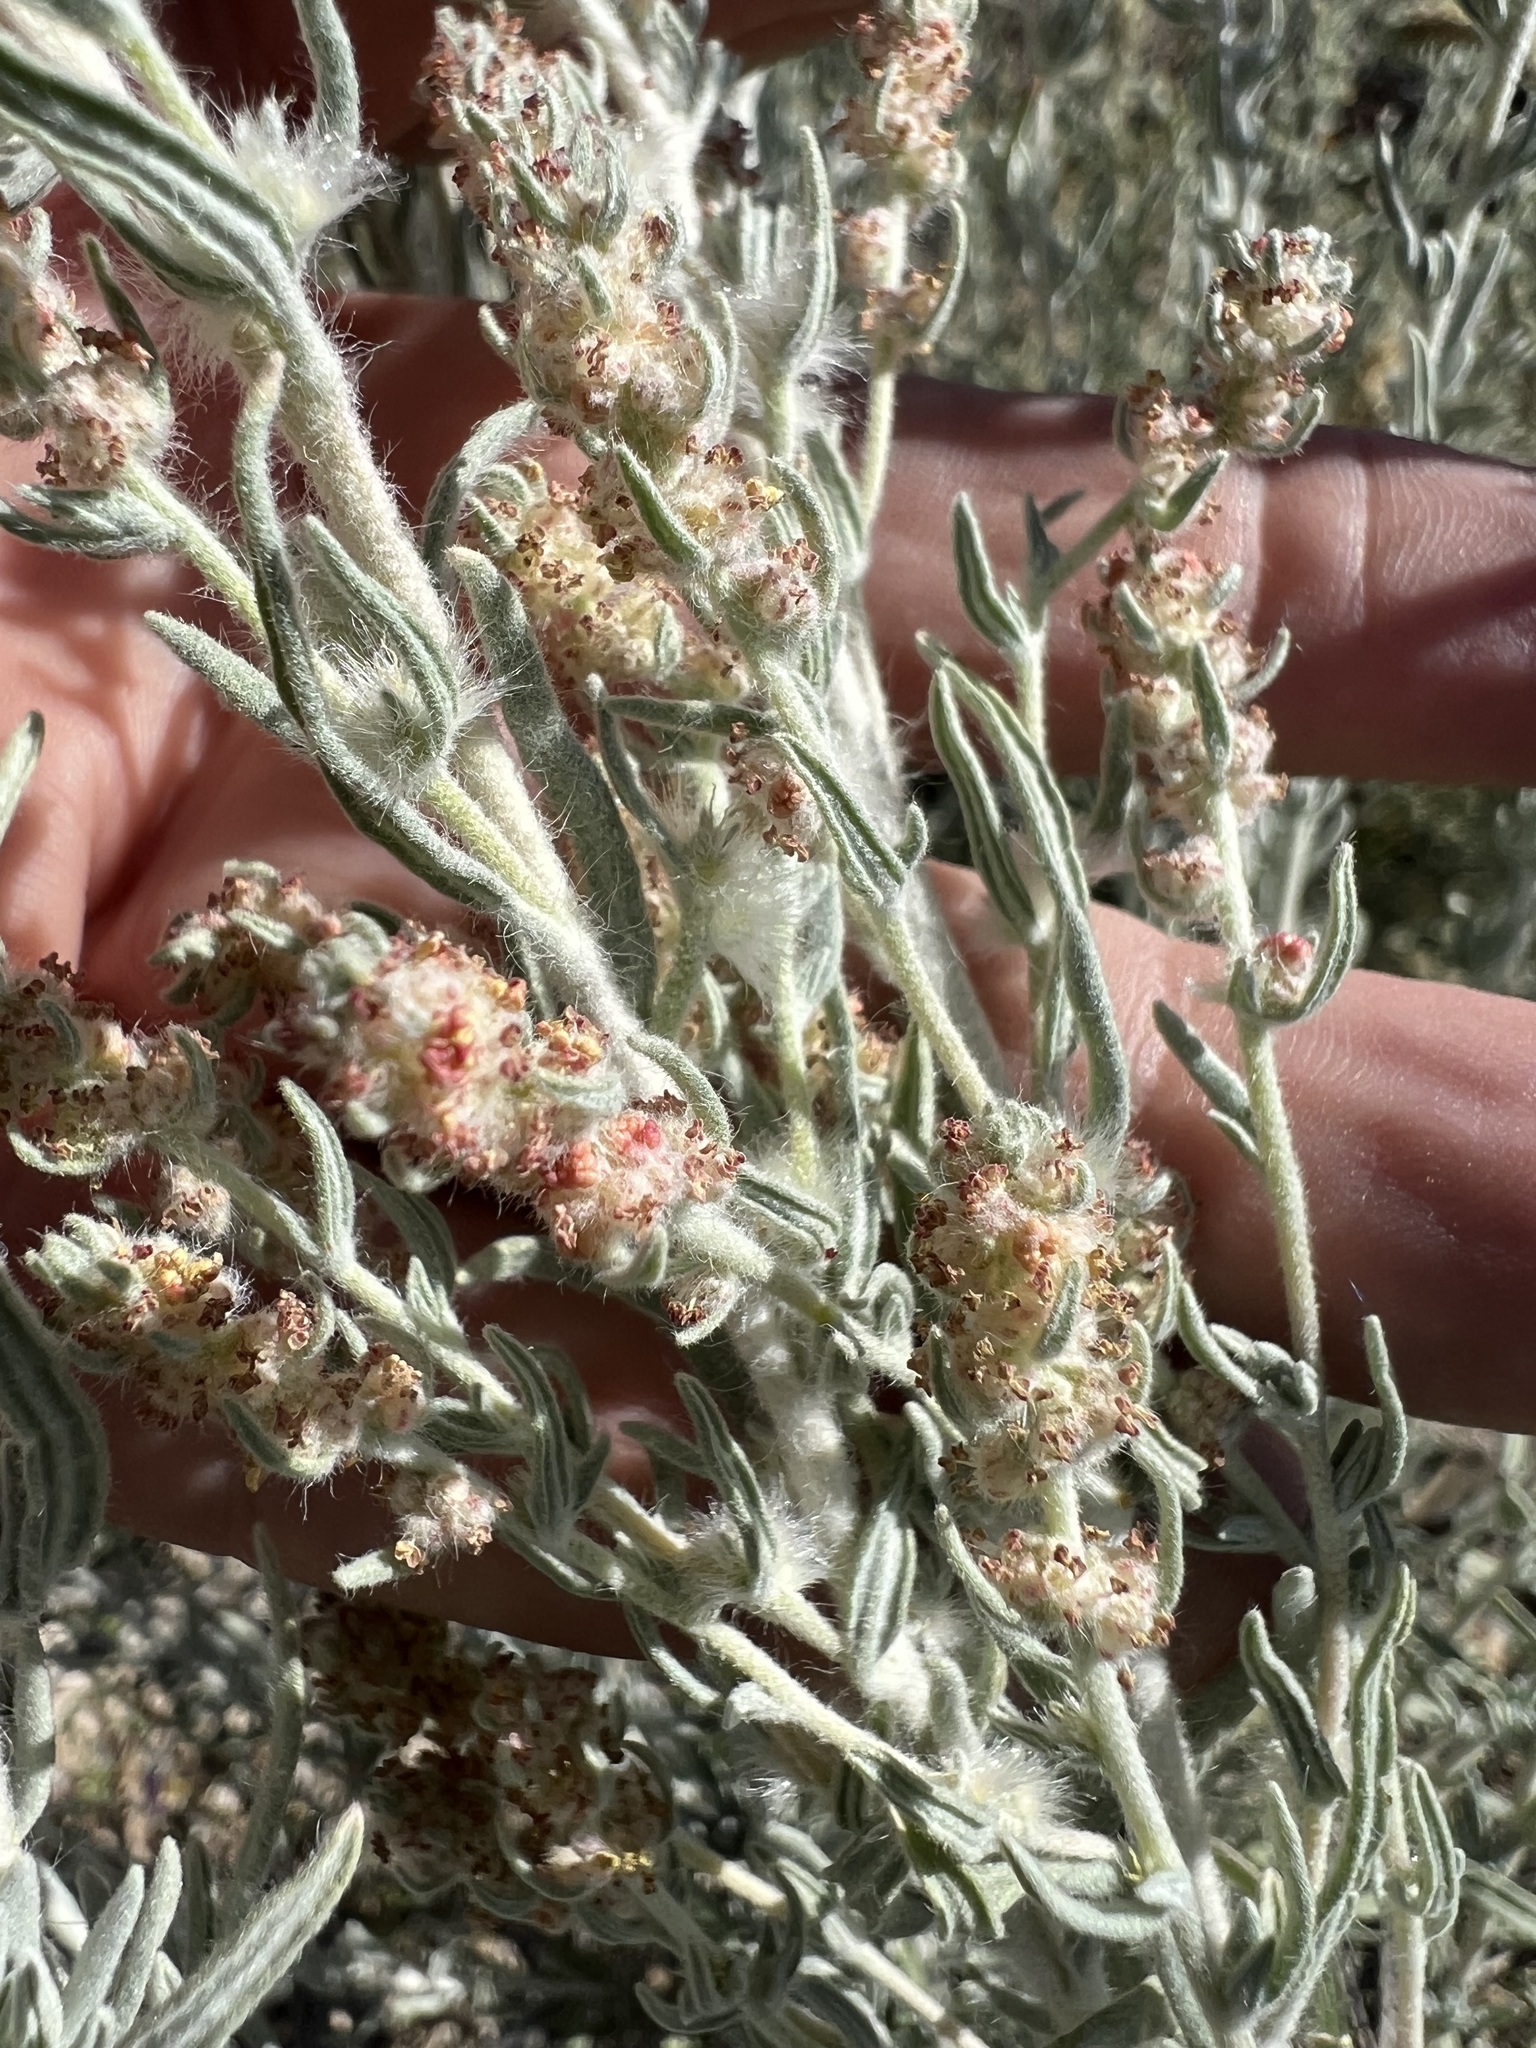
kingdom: Plantae
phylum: Tracheophyta
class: Magnoliopsida
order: Caryophyllales
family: Amaranthaceae
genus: Krascheninnikovia
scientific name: Krascheninnikovia lanata
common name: Winterfat
